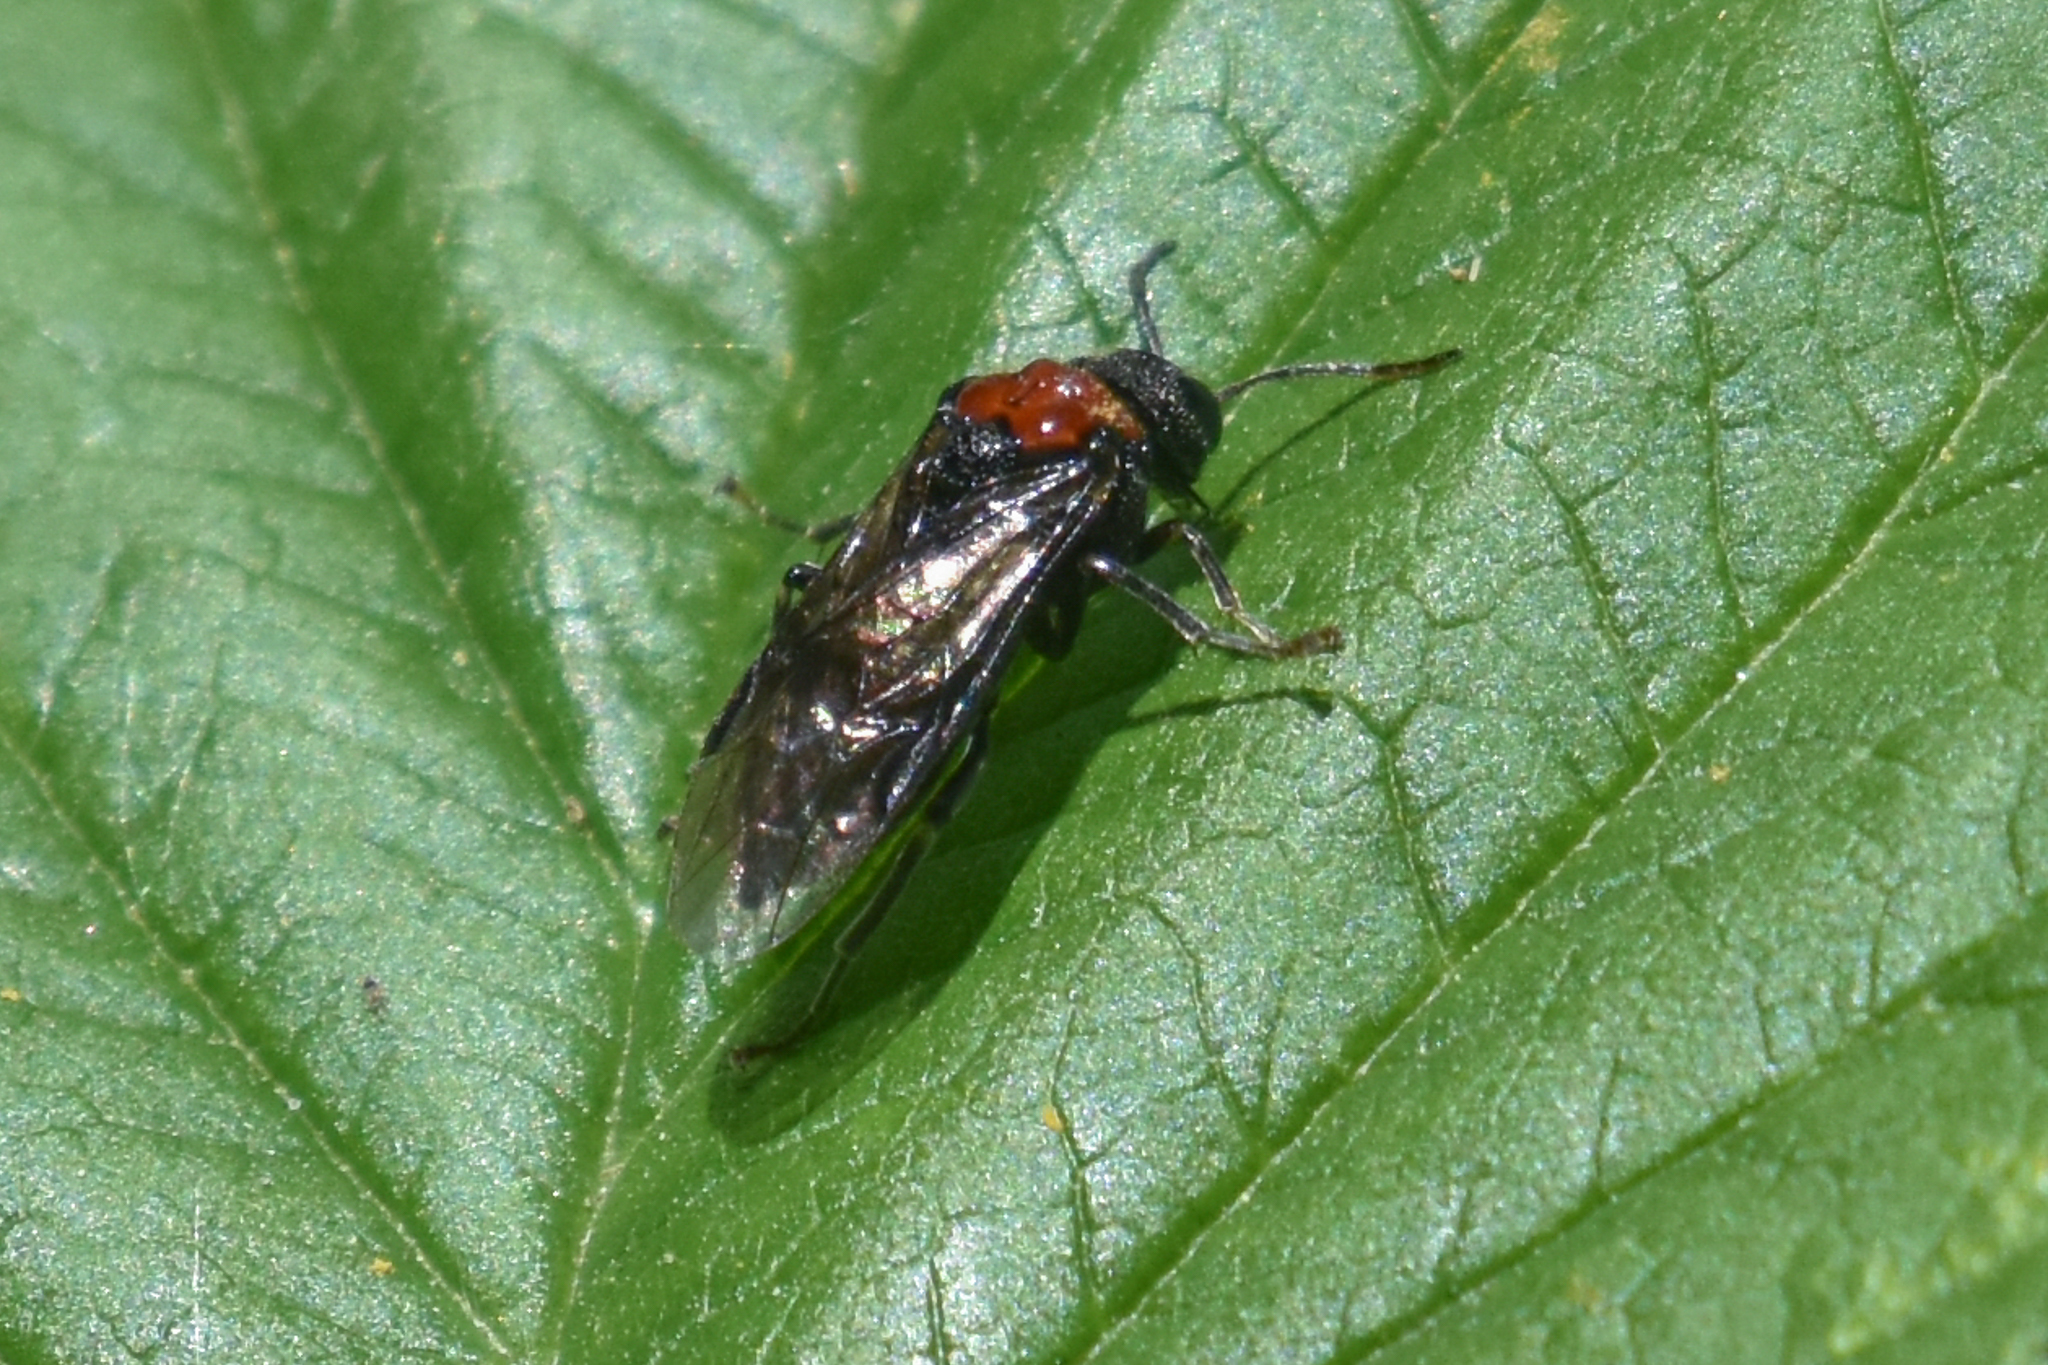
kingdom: Animalia
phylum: Arthropoda
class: Insecta
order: Hymenoptera
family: Tenthredinidae
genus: Eriocampa
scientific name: Eriocampa ovata
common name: Alder wooly sawfly
